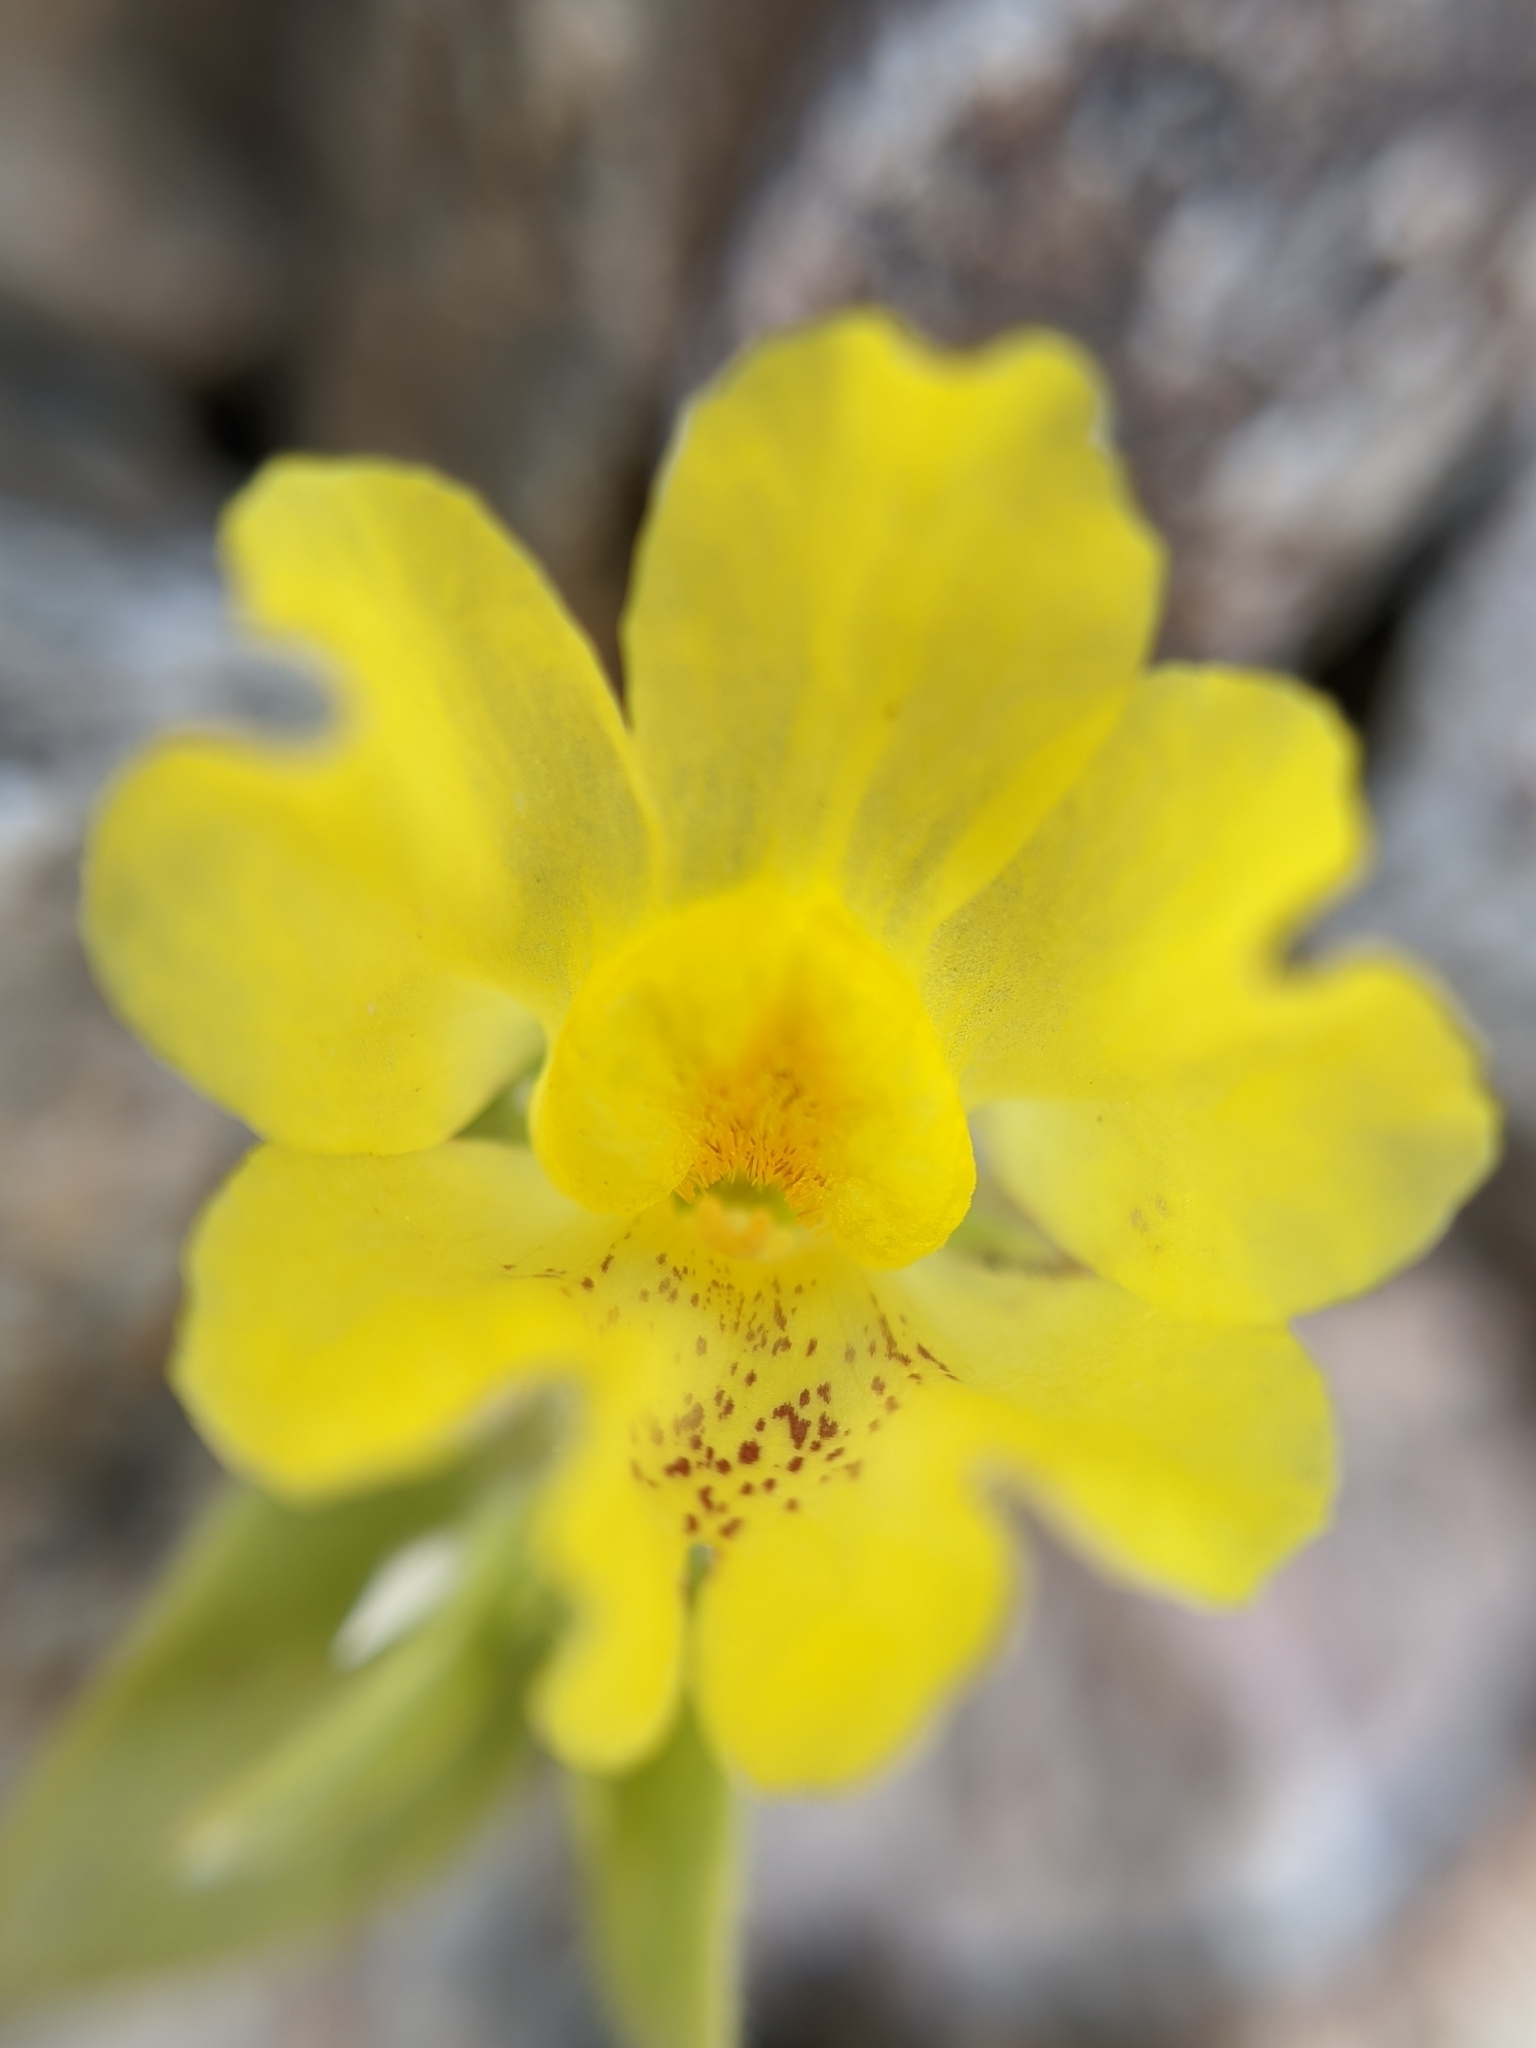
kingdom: Plantae
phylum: Tracheophyta
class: Magnoliopsida
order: Lamiales
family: Plantaginaceae
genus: Mohavea
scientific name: Mohavea breviflora
